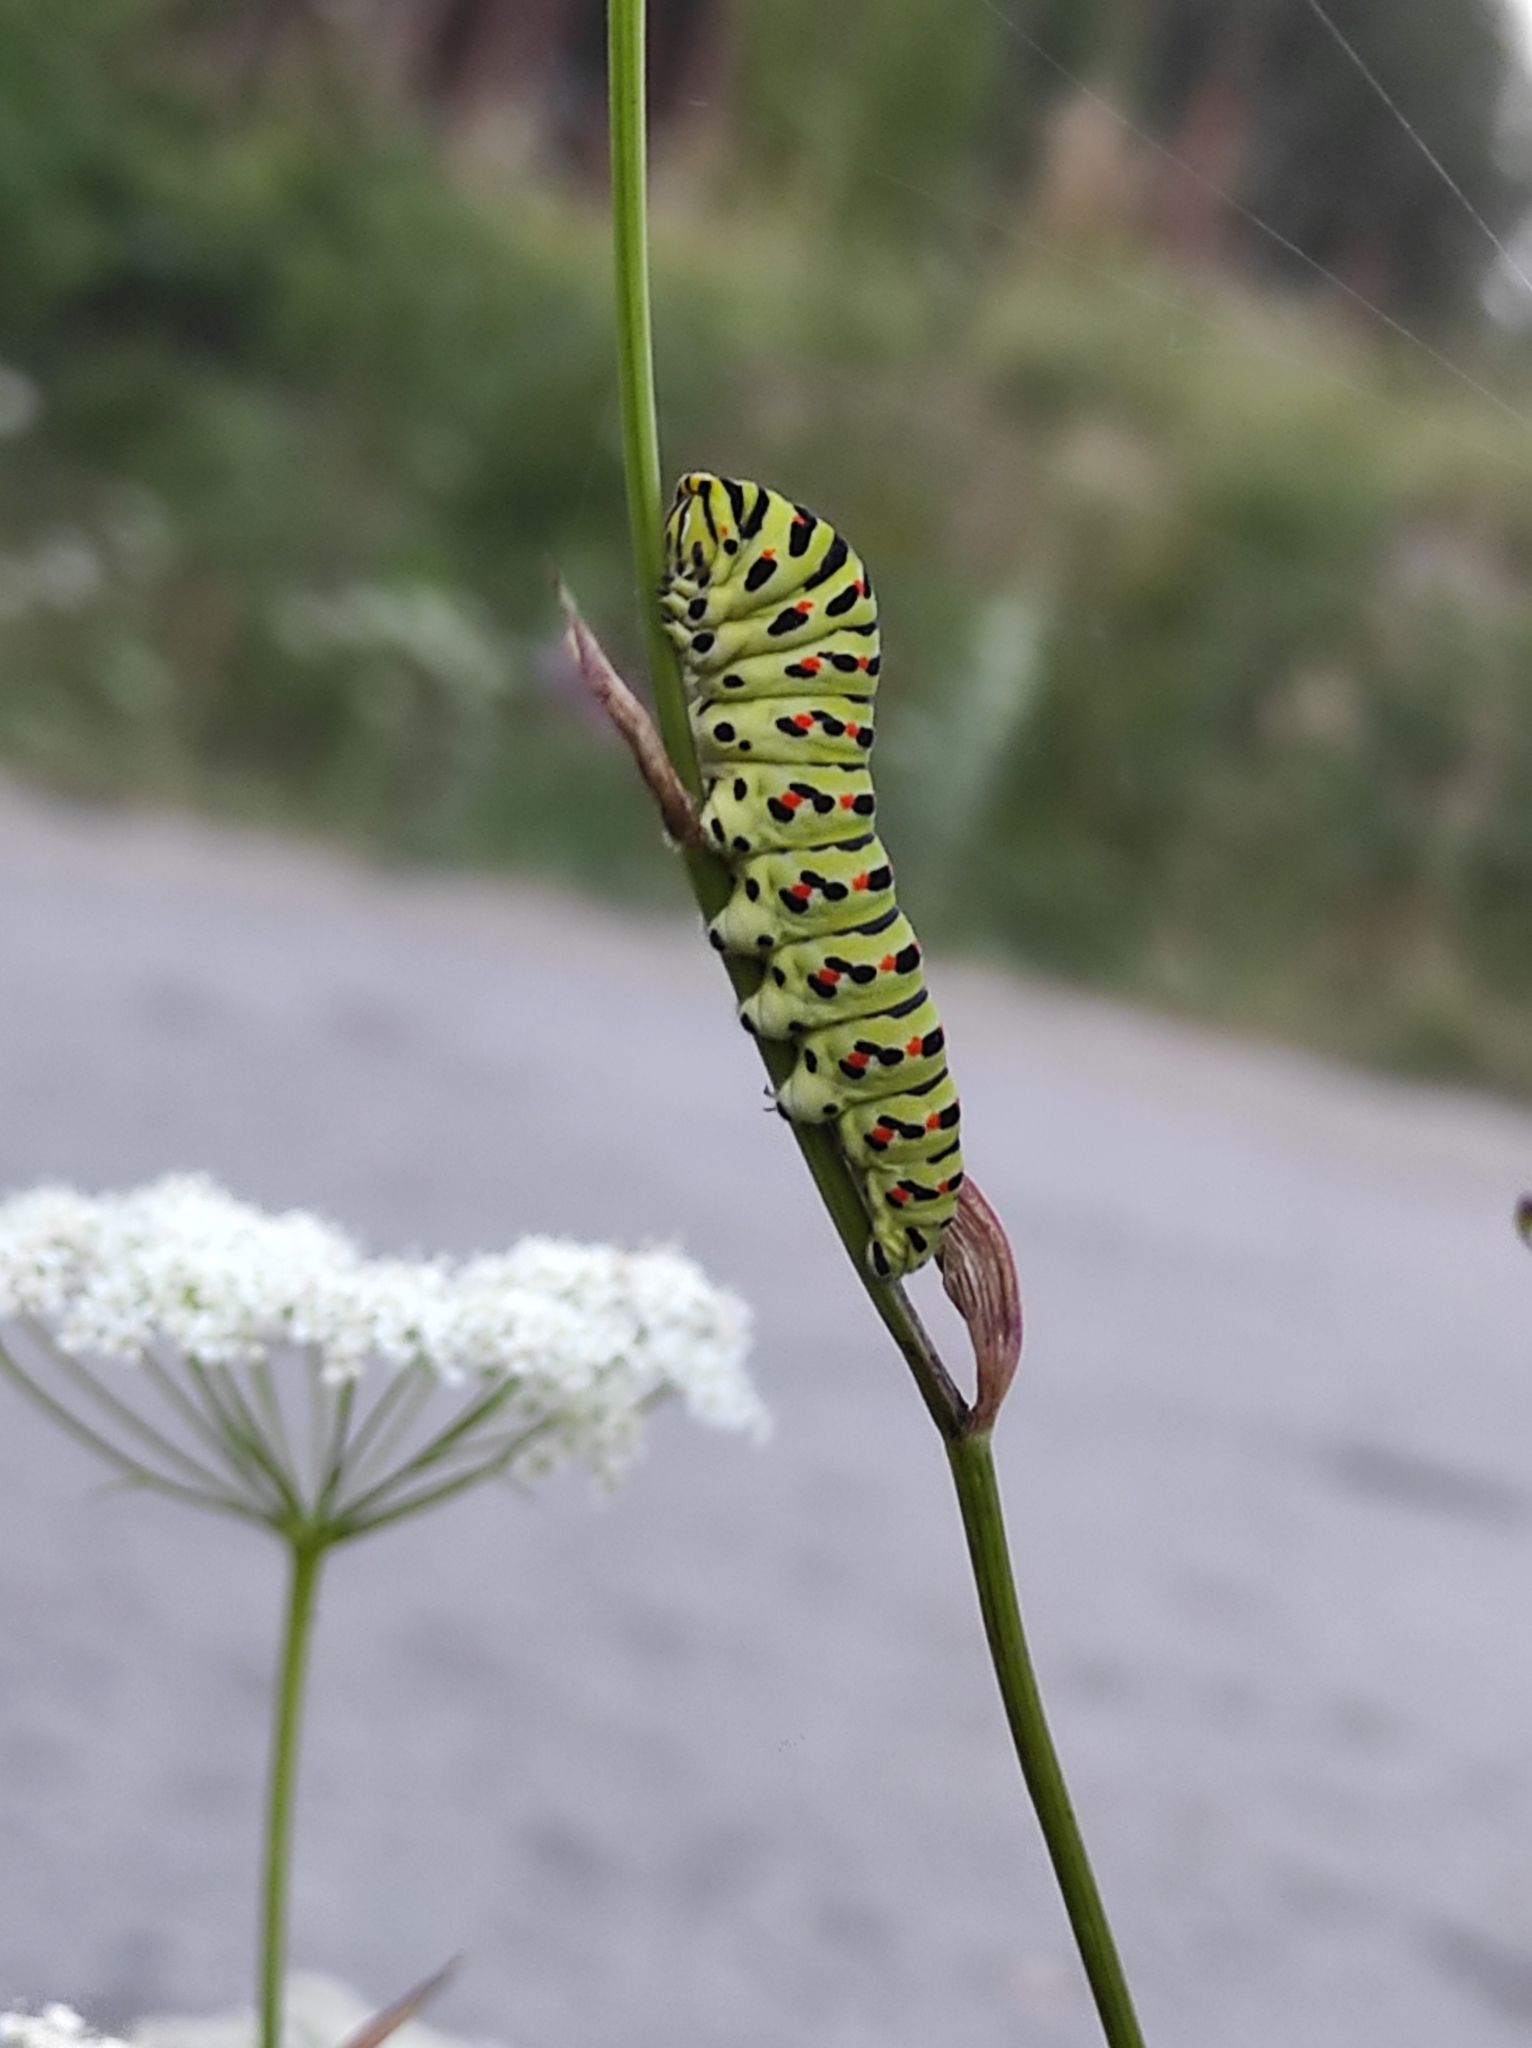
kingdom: Animalia
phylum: Arthropoda
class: Insecta
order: Lepidoptera
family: Papilionidae
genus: Papilio
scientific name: Papilio machaon
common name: Swallowtail
